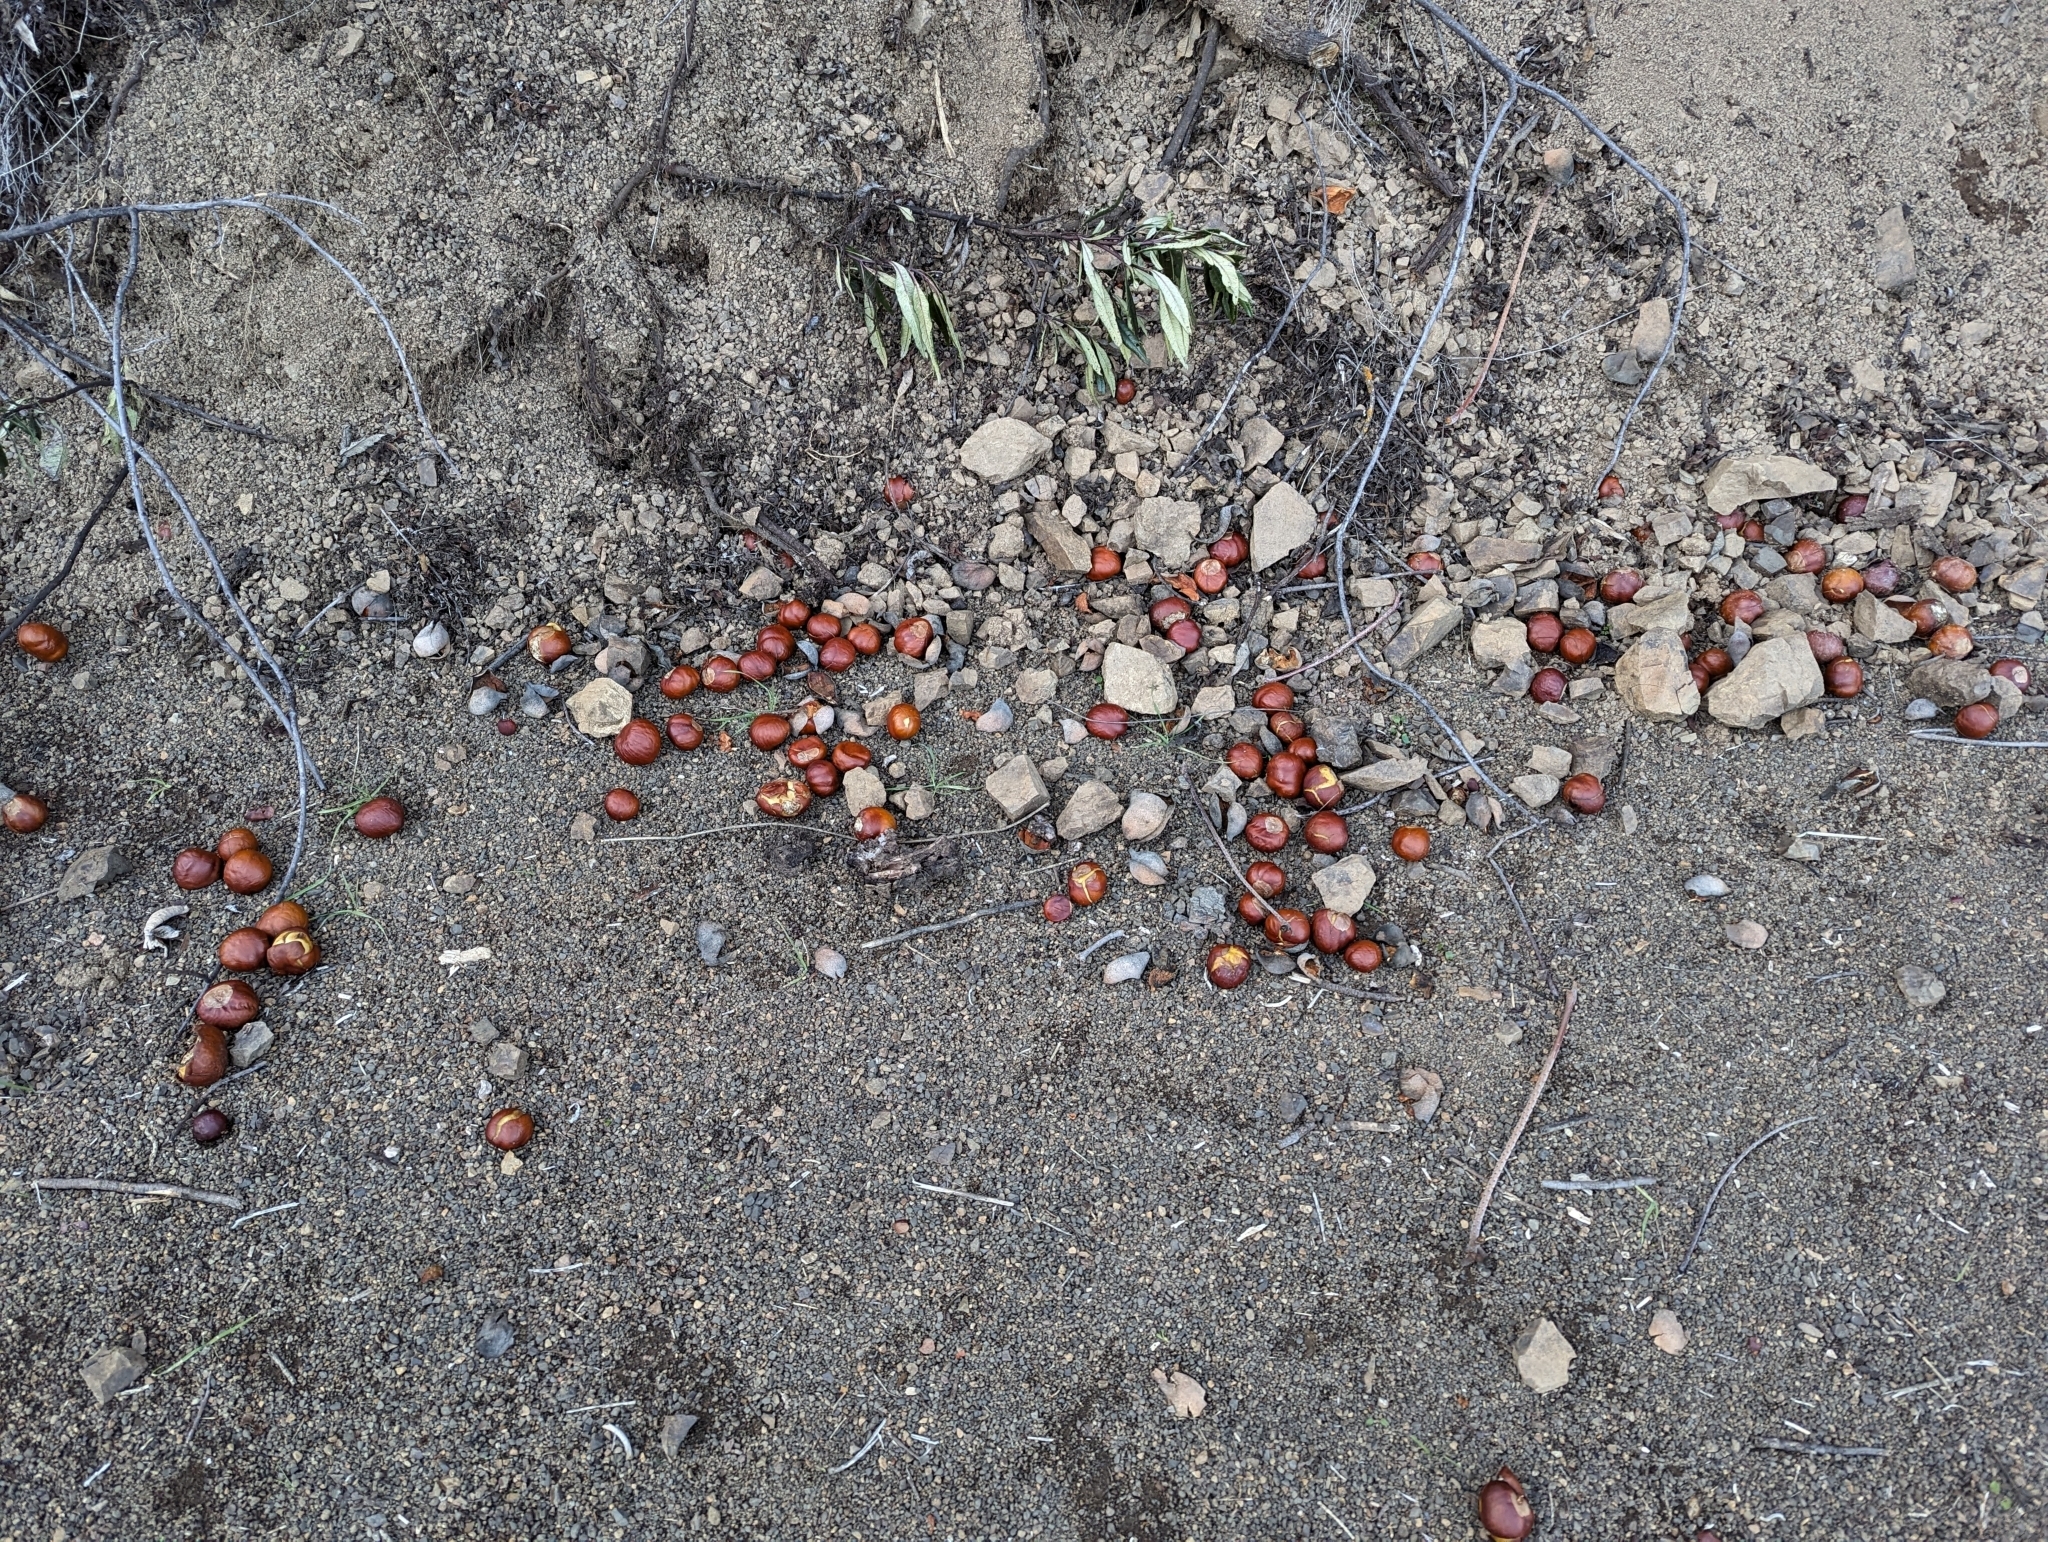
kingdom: Plantae
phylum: Tracheophyta
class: Magnoliopsida
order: Sapindales
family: Sapindaceae
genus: Aesculus
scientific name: Aesculus californica
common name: California buckeye
